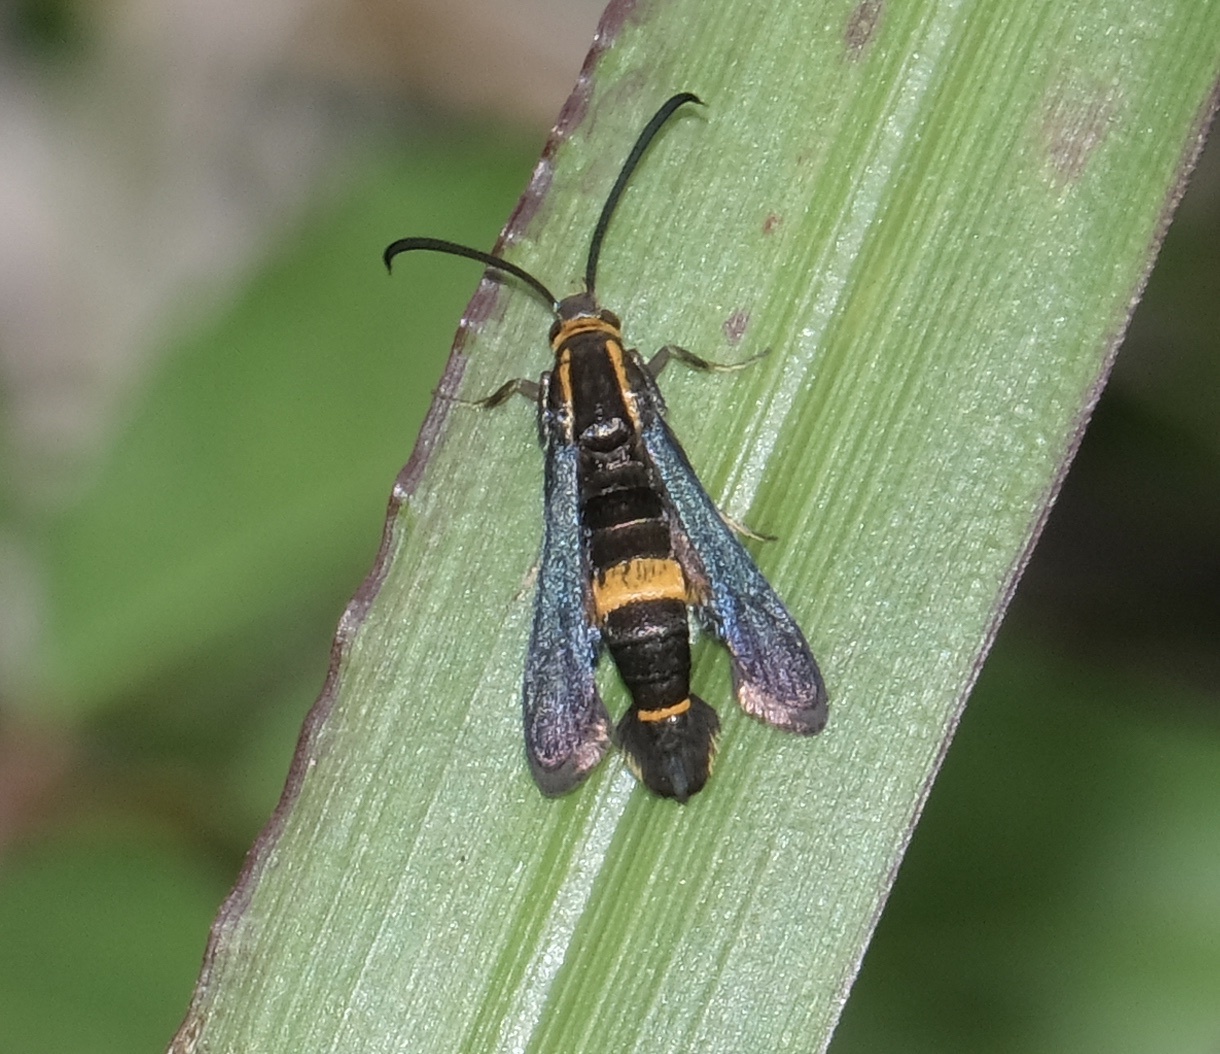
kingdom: Animalia
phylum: Arthropoda
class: Insecta
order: Lepidoptera
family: Sesiidae
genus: Carmenta
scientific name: Carmenta pyralidiformis
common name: Boneset borer moth
